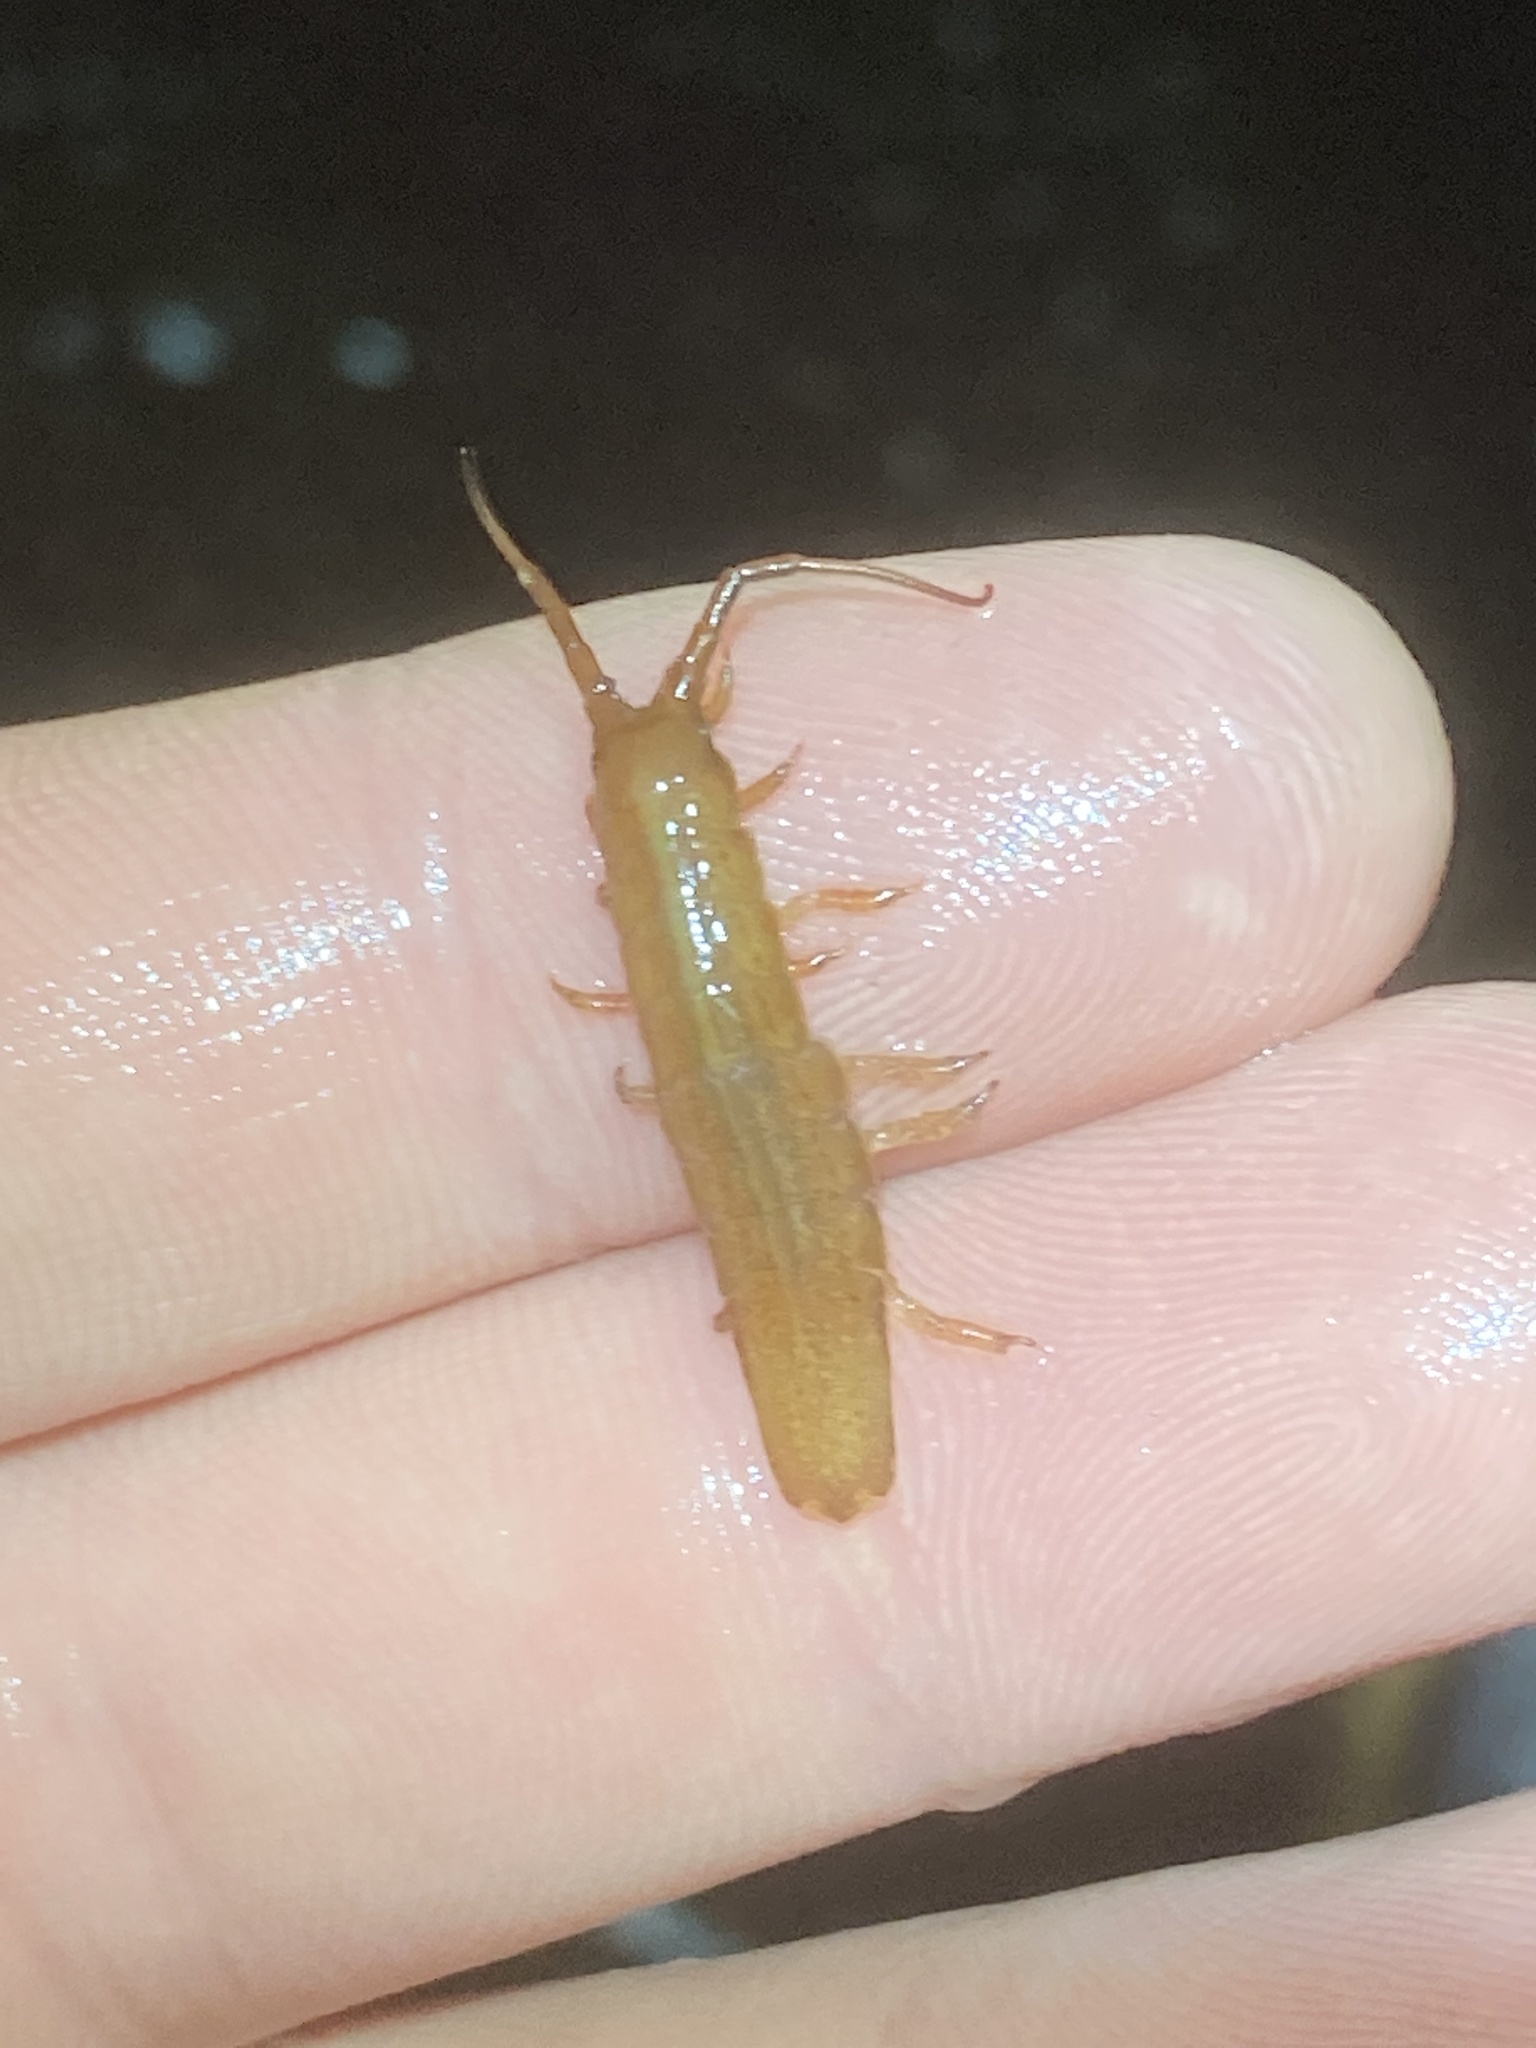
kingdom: Animalia
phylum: Arthropoda
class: Malacostraca
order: Isopoda
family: Idoteidae
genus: Idotea
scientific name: Idotea urotoma
